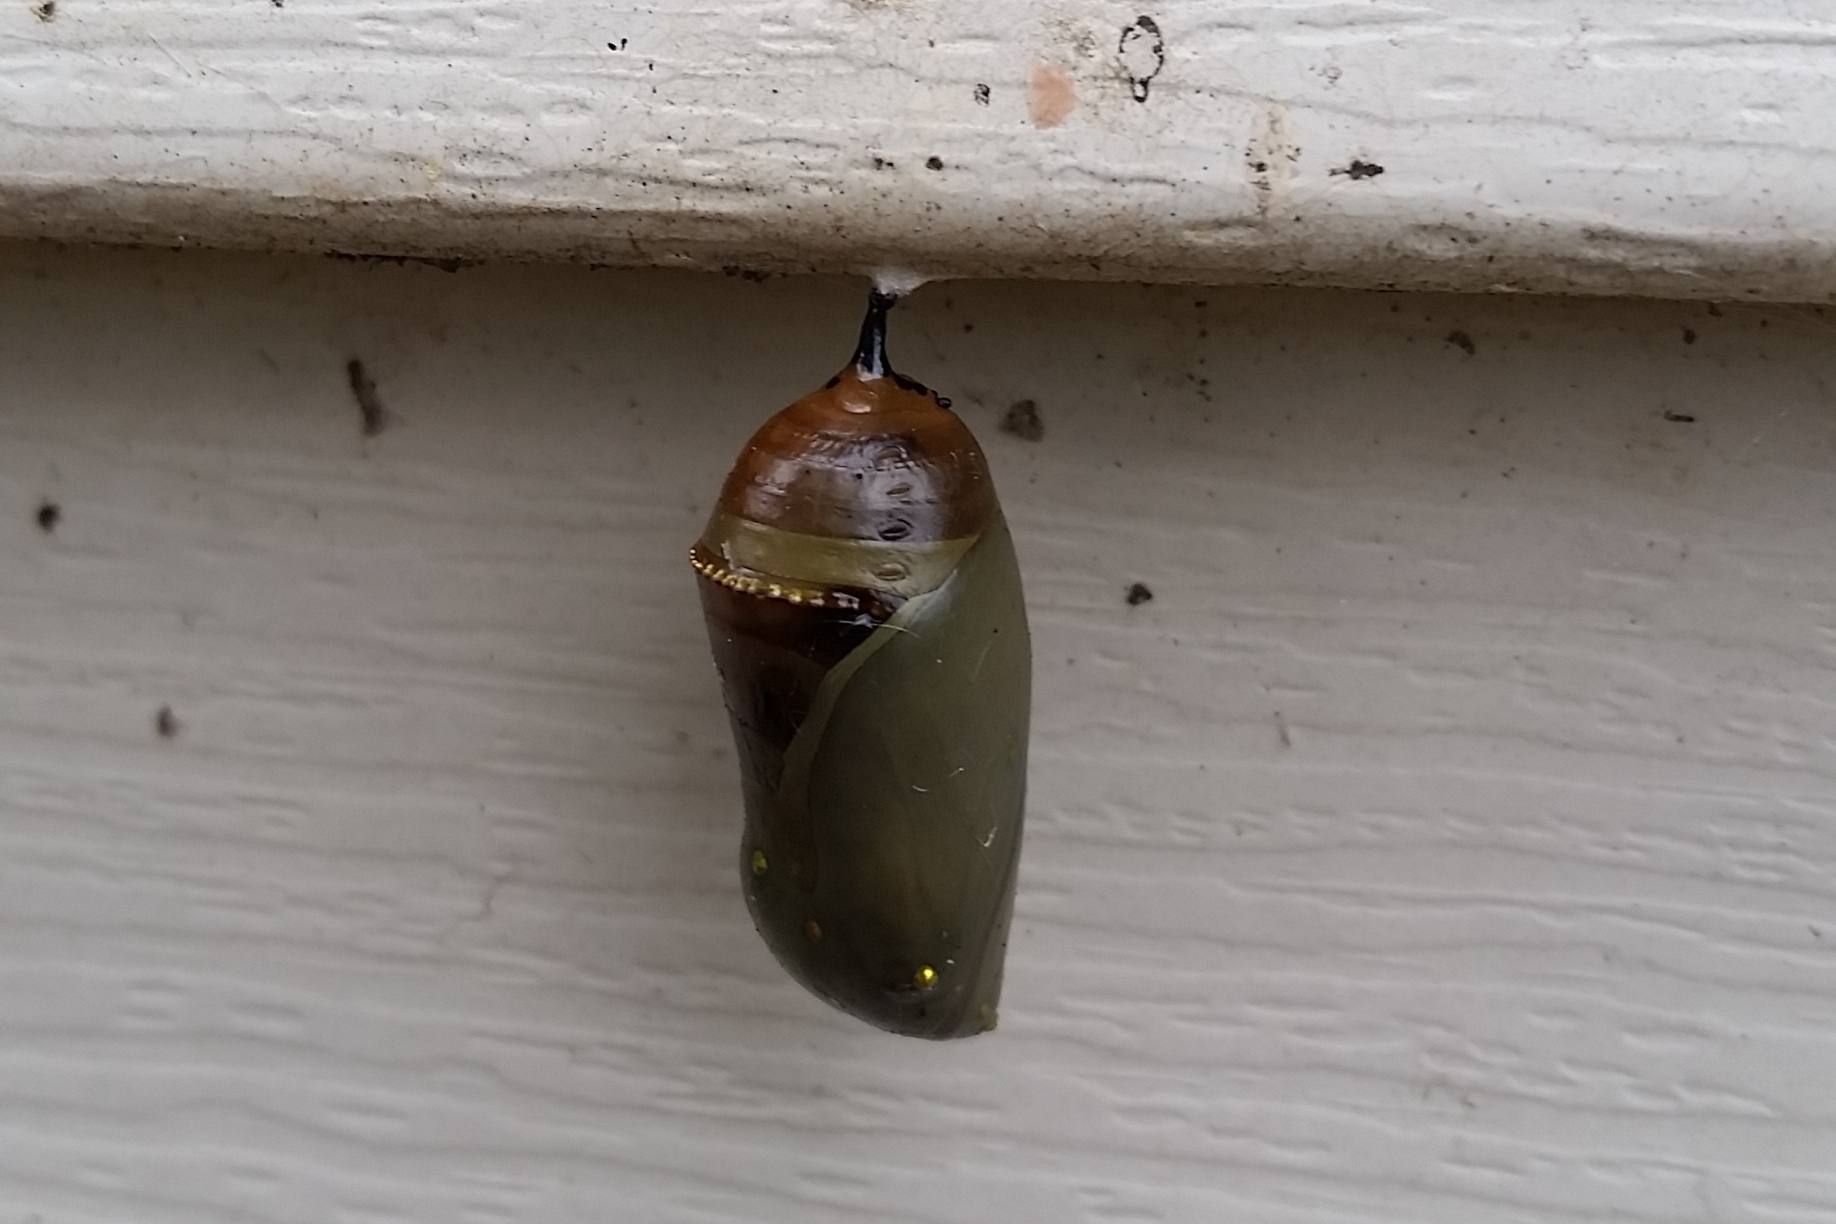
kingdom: Animalia
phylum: Arthropoda
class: Insecta
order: Lepidoptera
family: Nymphalidae
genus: Danaus
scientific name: Danaus plexippus
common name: Monarch
